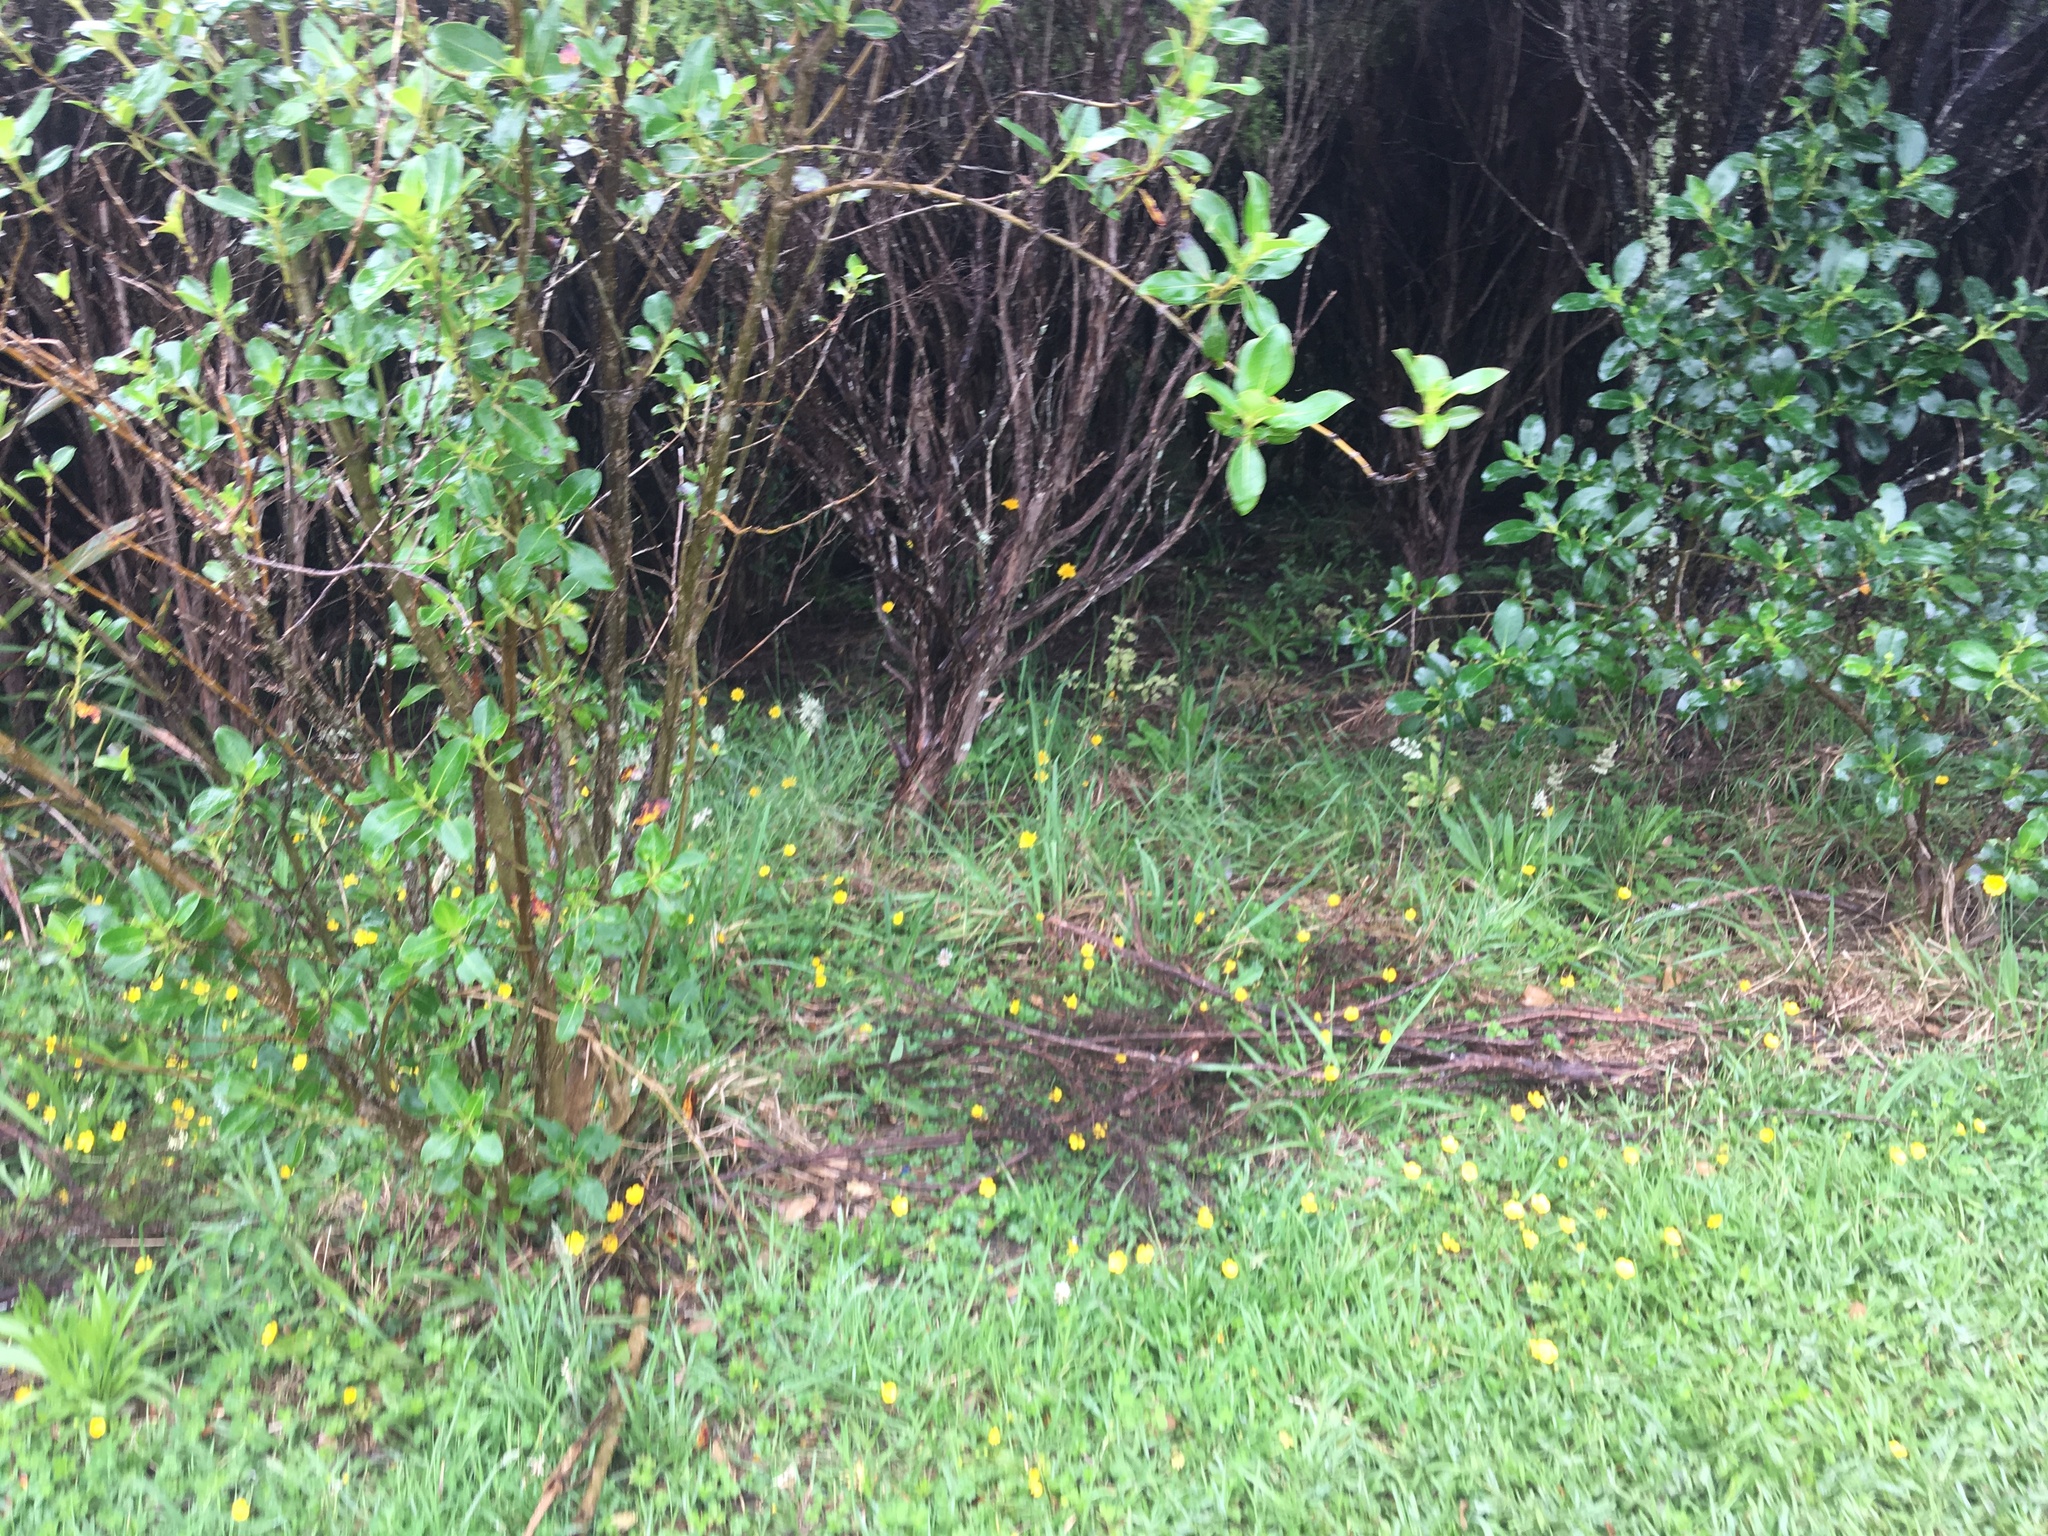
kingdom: Plantae
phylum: Tracheophyta
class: Magnoliopsida
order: Gentianales
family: Rubiaceae
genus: Coprosma
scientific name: Coprosma robusta
